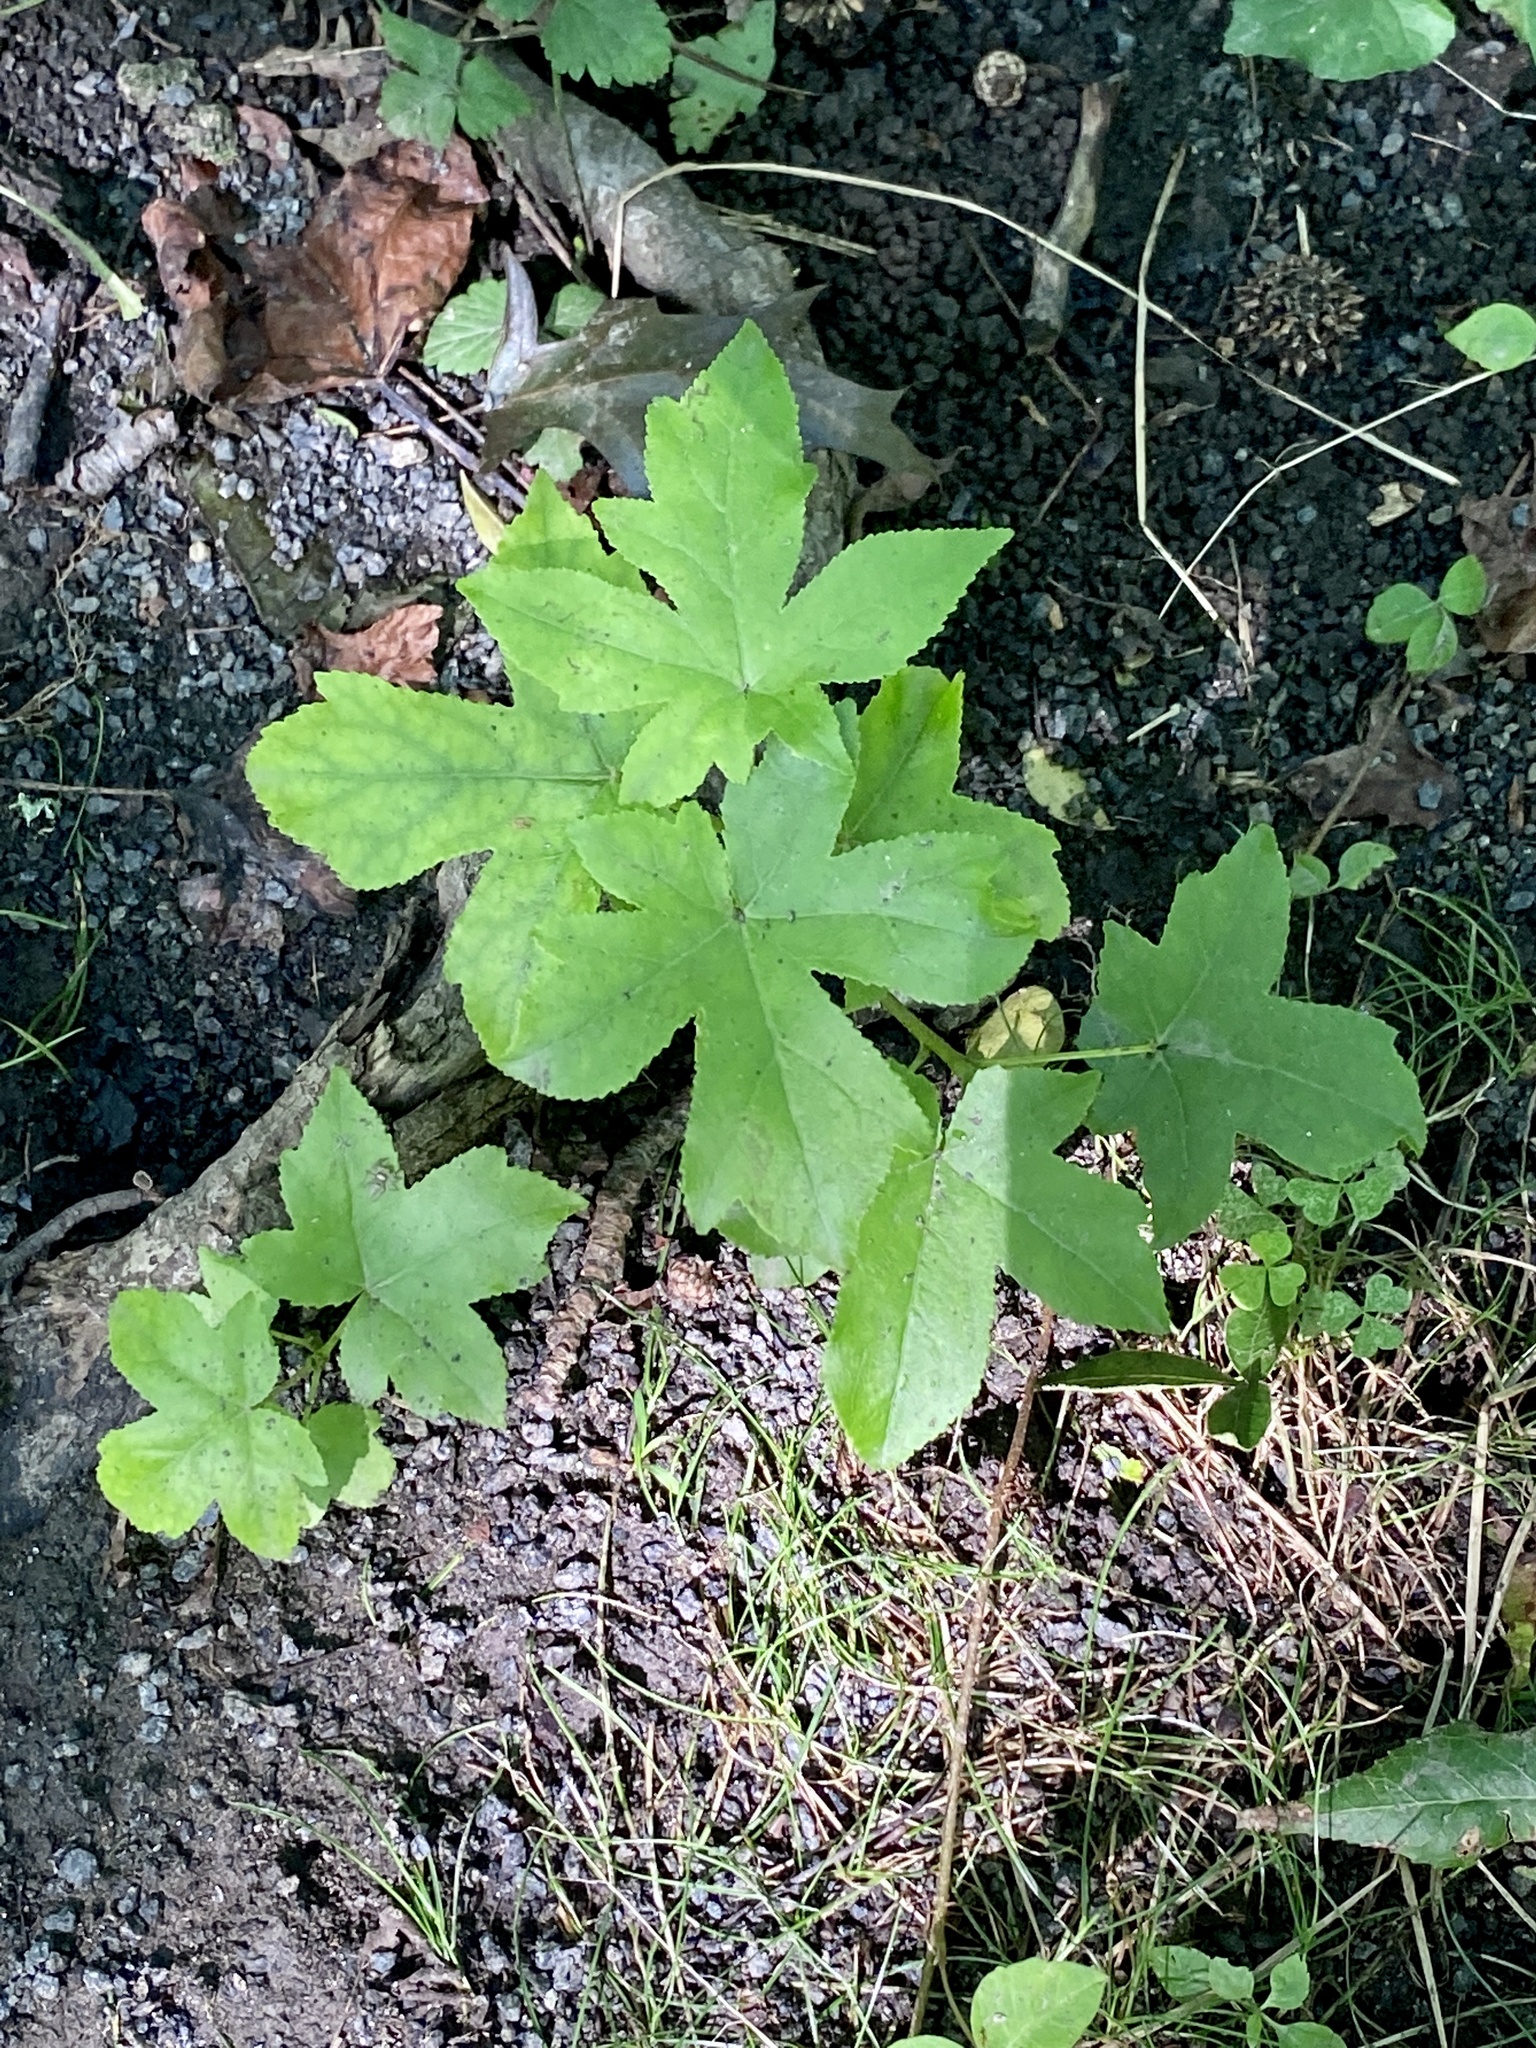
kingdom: Plantae
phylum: Tracheophyta
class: Magnoliopsida
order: Saxifragales
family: Altingiaceae
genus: Liquidambar
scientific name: Liquidambar styraciflua
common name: Sweet gum
